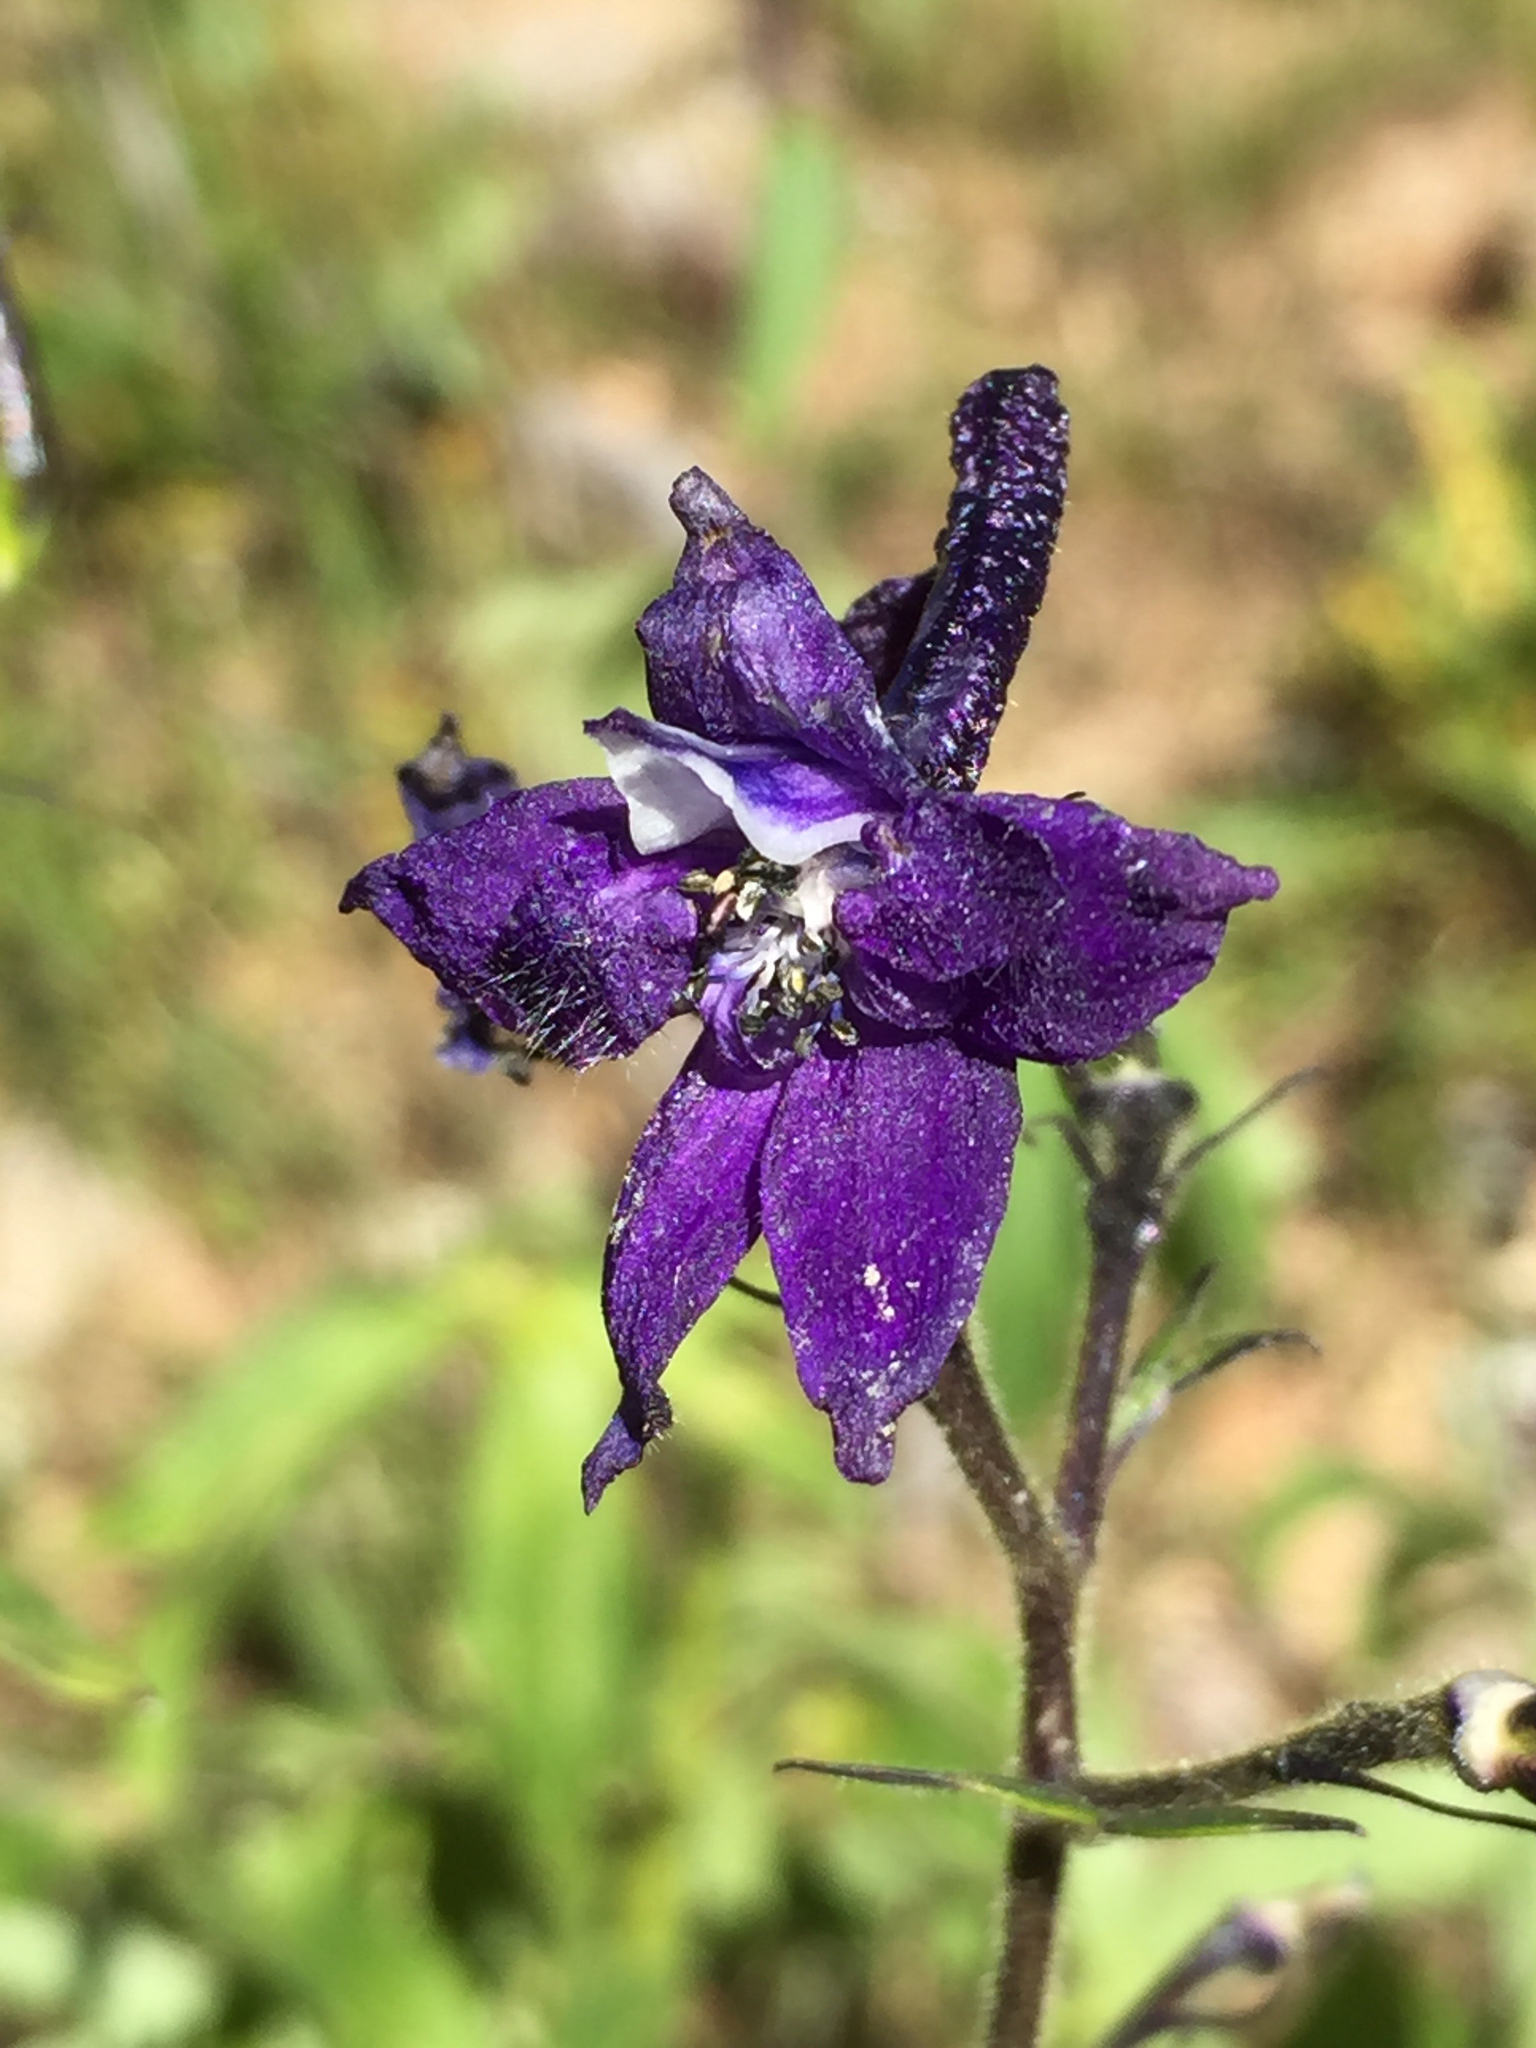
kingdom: Plantae
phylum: Tracheophyta
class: Magnoliopsida
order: Ranunculales
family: Ranunculaceae
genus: Delphinium
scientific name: Delphinium barbeyi
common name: Subalpine larkspur
